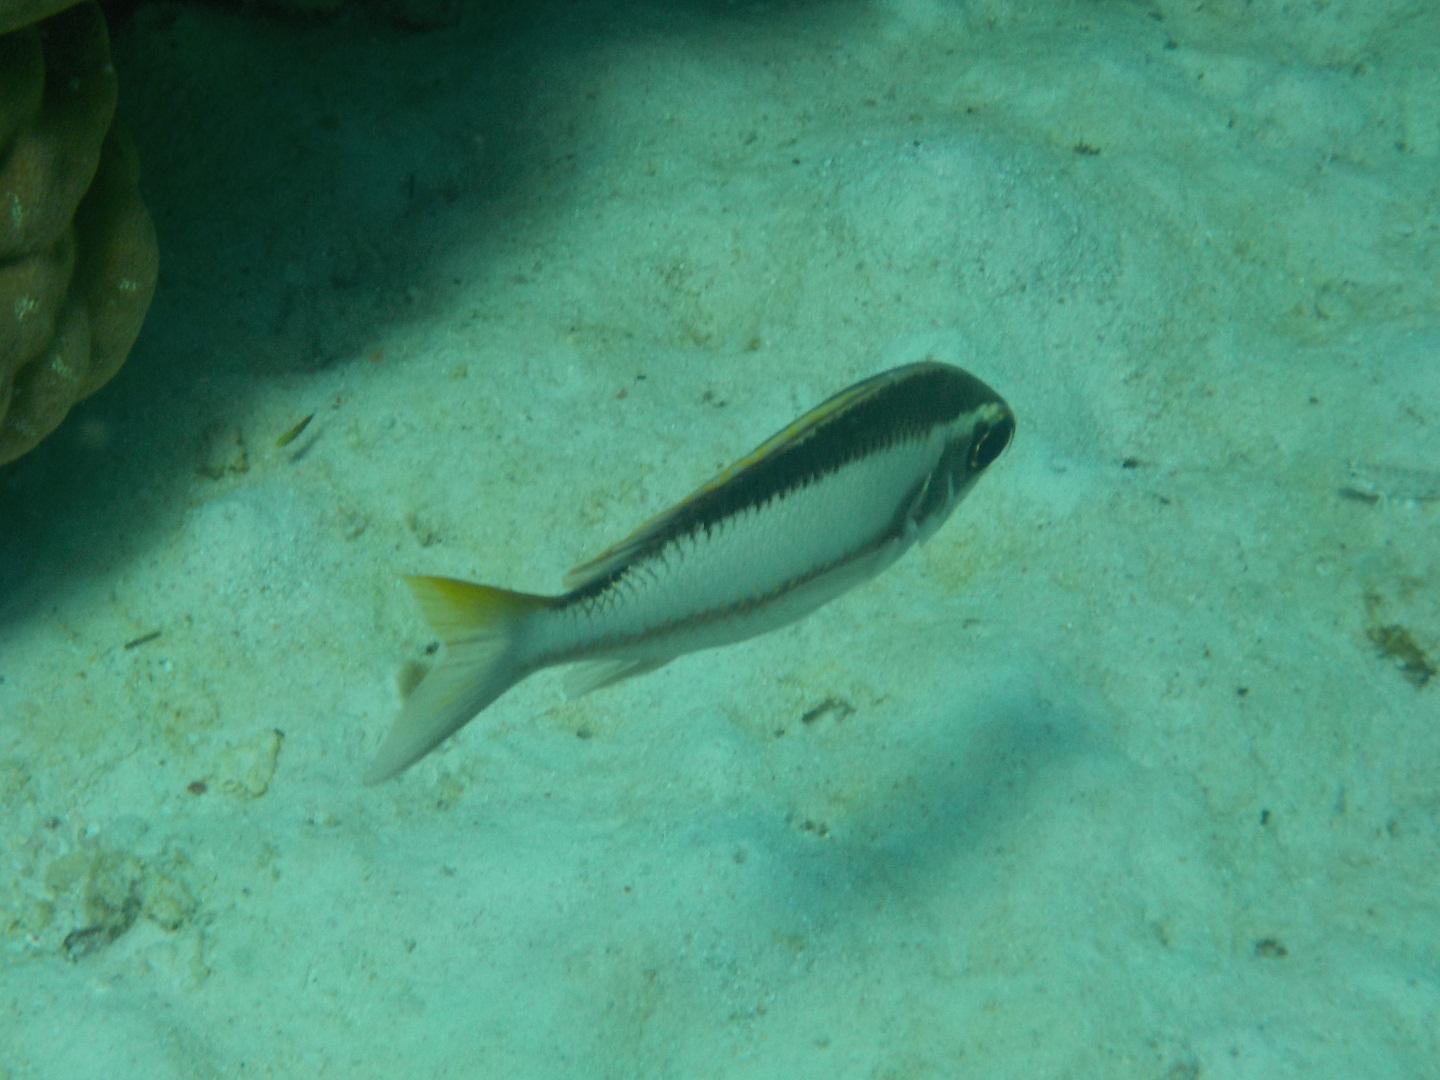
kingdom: Animalia
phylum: Chordata
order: Perciformes
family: Nemipteridae
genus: Scolopsis
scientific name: Scolopsis margaritifera
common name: Pearly monocle bream
